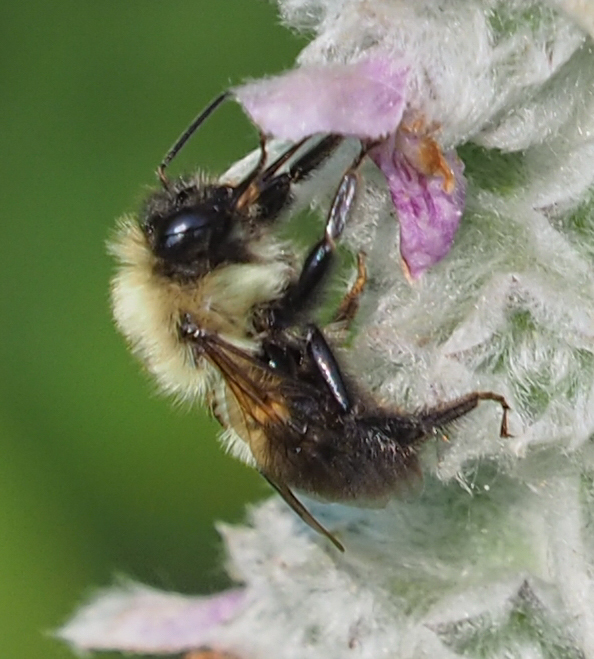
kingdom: Animalia
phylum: Arthropoda
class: Insecta
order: Hymenoptera
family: Apidae
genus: Bombus
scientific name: Bombus bimaculatus
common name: Two-spotted bumble bee
